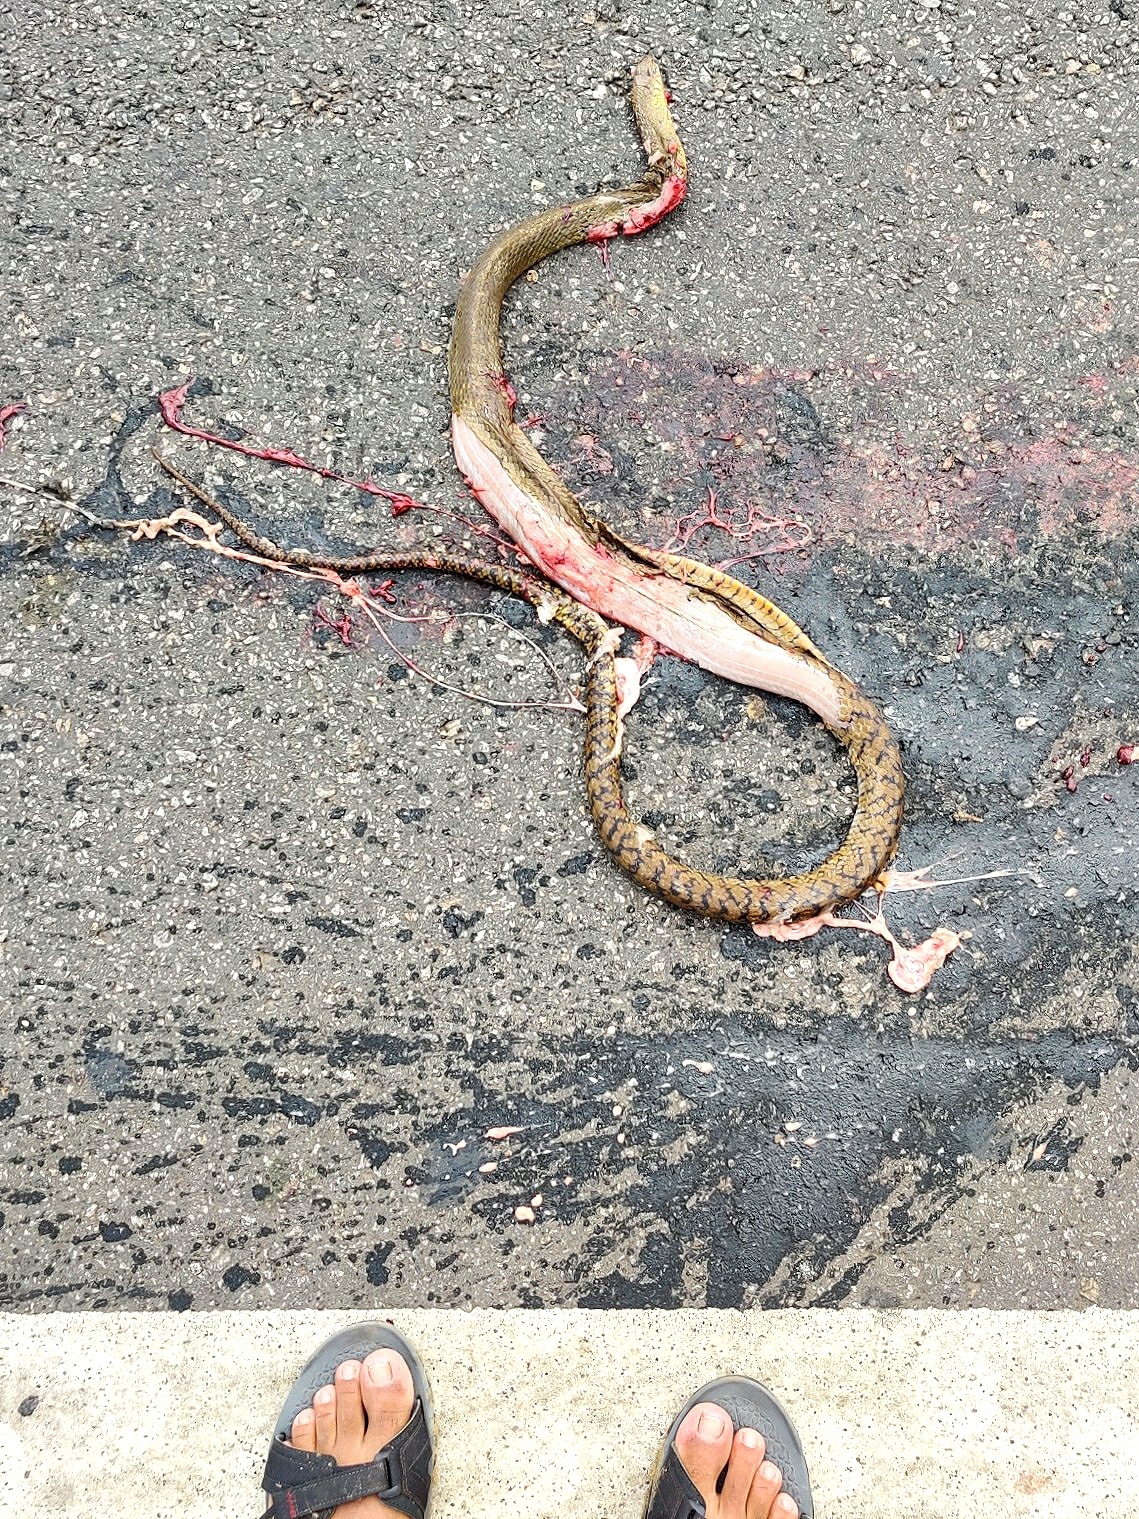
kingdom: Animalia
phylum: Chordata
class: Squamata
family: Colubridae
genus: Ptyas
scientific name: Ptyas mucosa
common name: Oriental ratsnake
